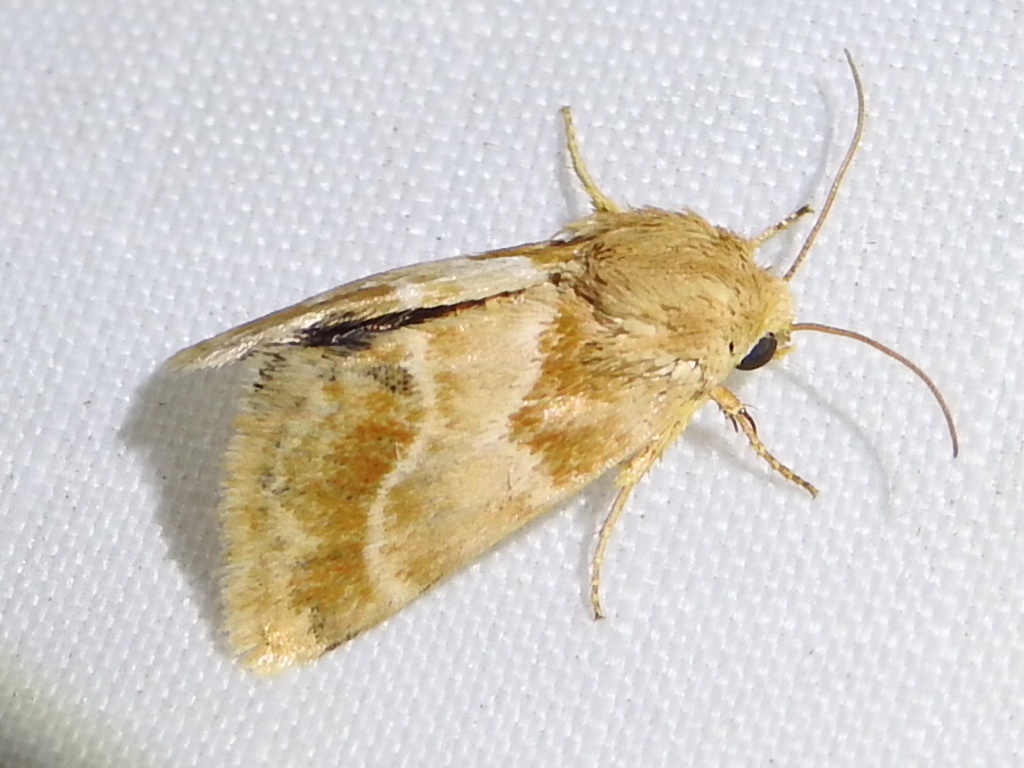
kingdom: Animalia
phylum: Arthropoda
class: Insecta
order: Lepidoptera
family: Noctuidae
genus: Schinia
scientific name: Schinia siren
